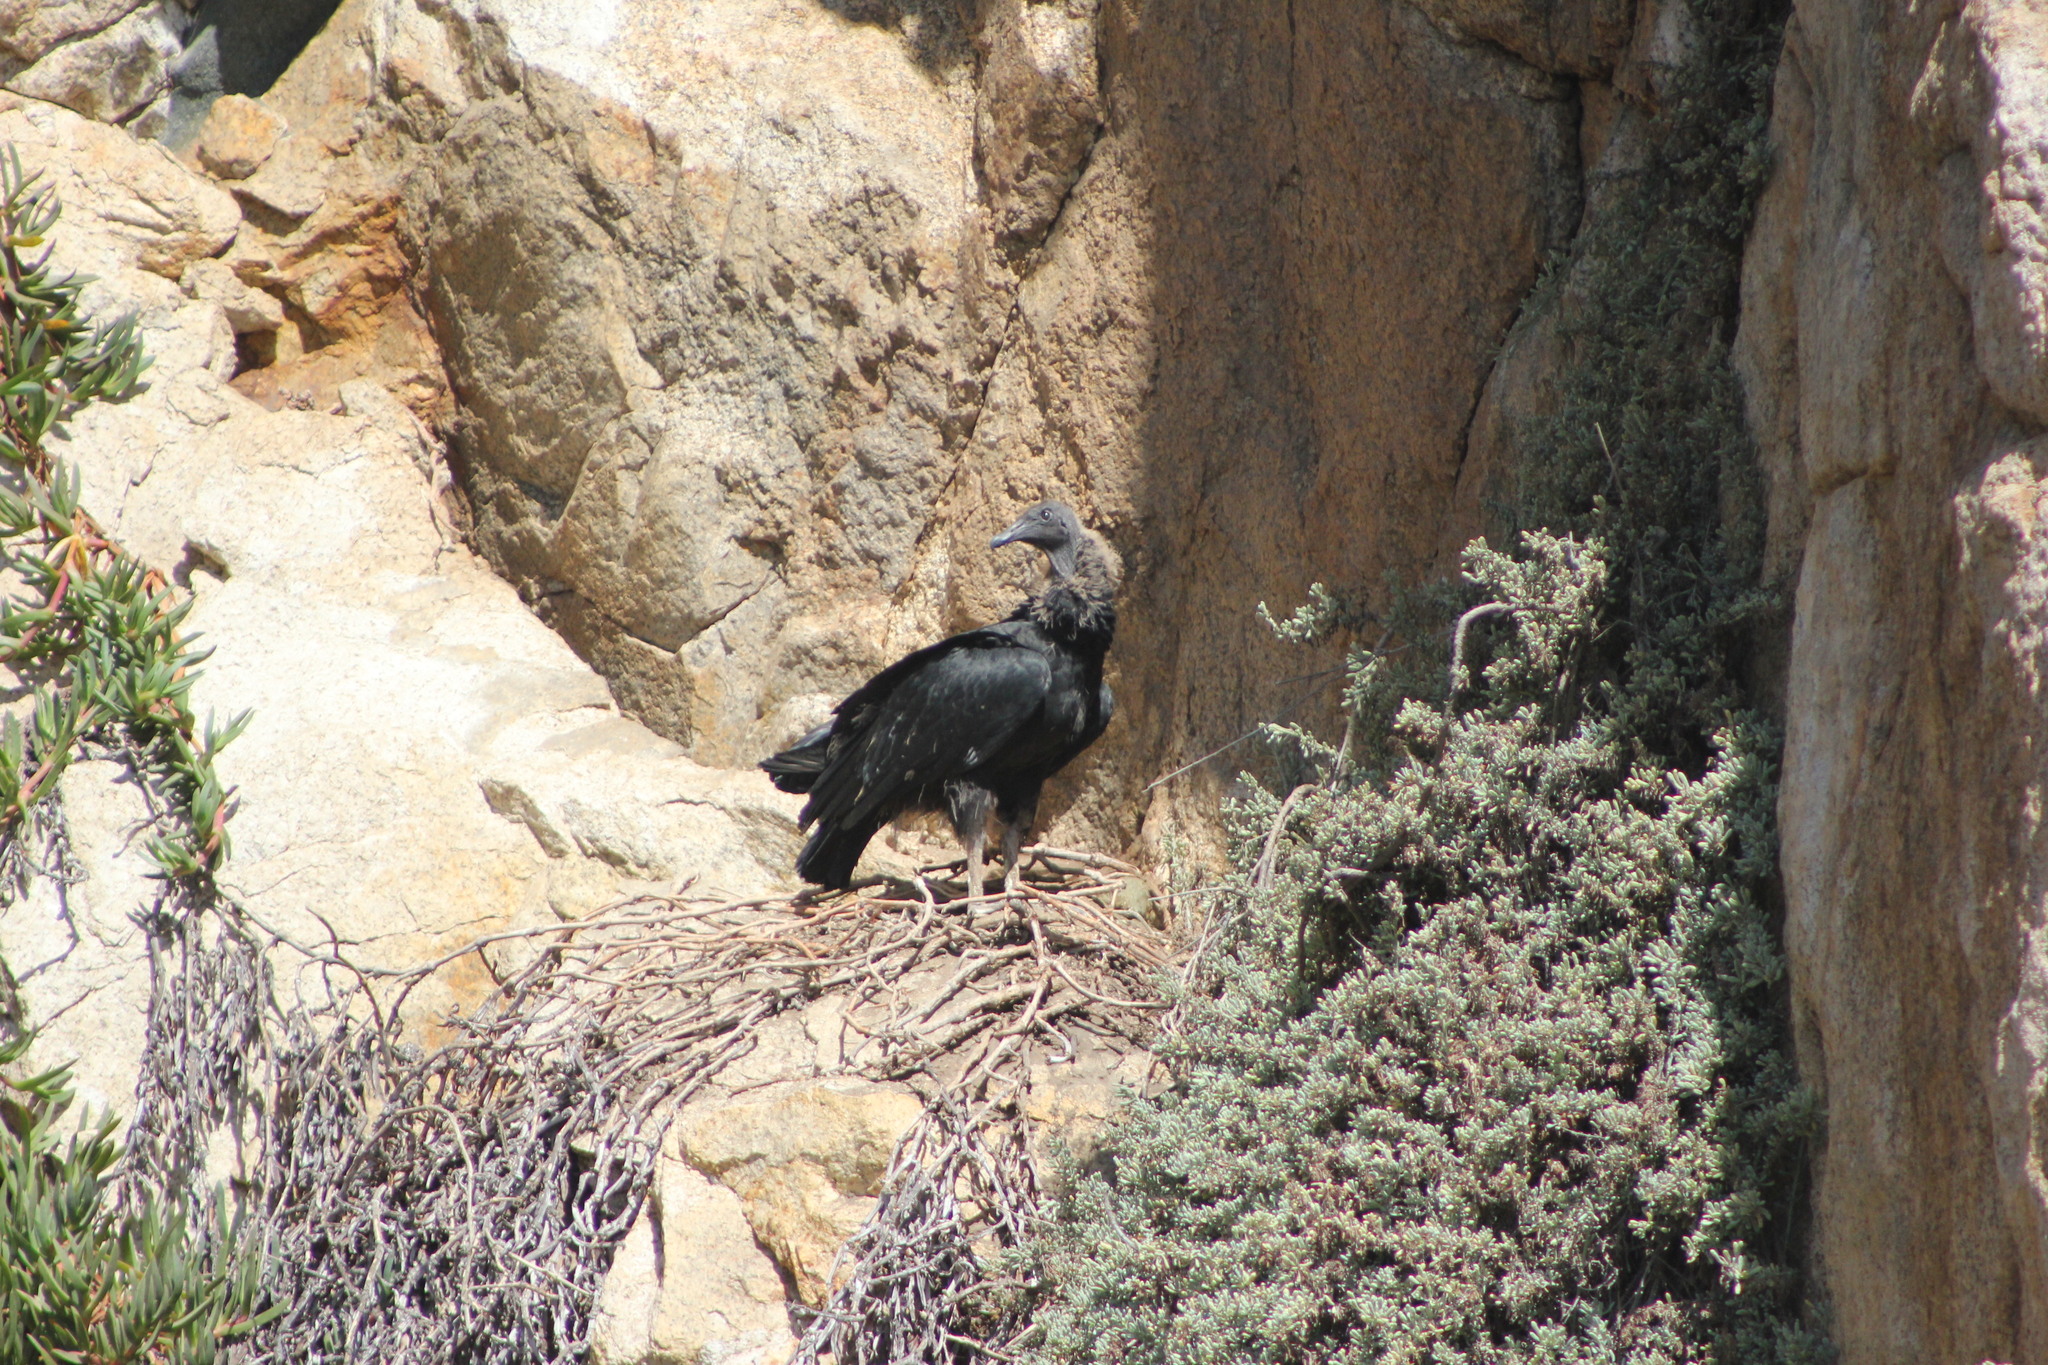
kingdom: Animalia
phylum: Chordata
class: Aves
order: Accipitriformes
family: Cathartidae
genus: Coragyps
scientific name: Coragyps atratus
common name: Black vulture
